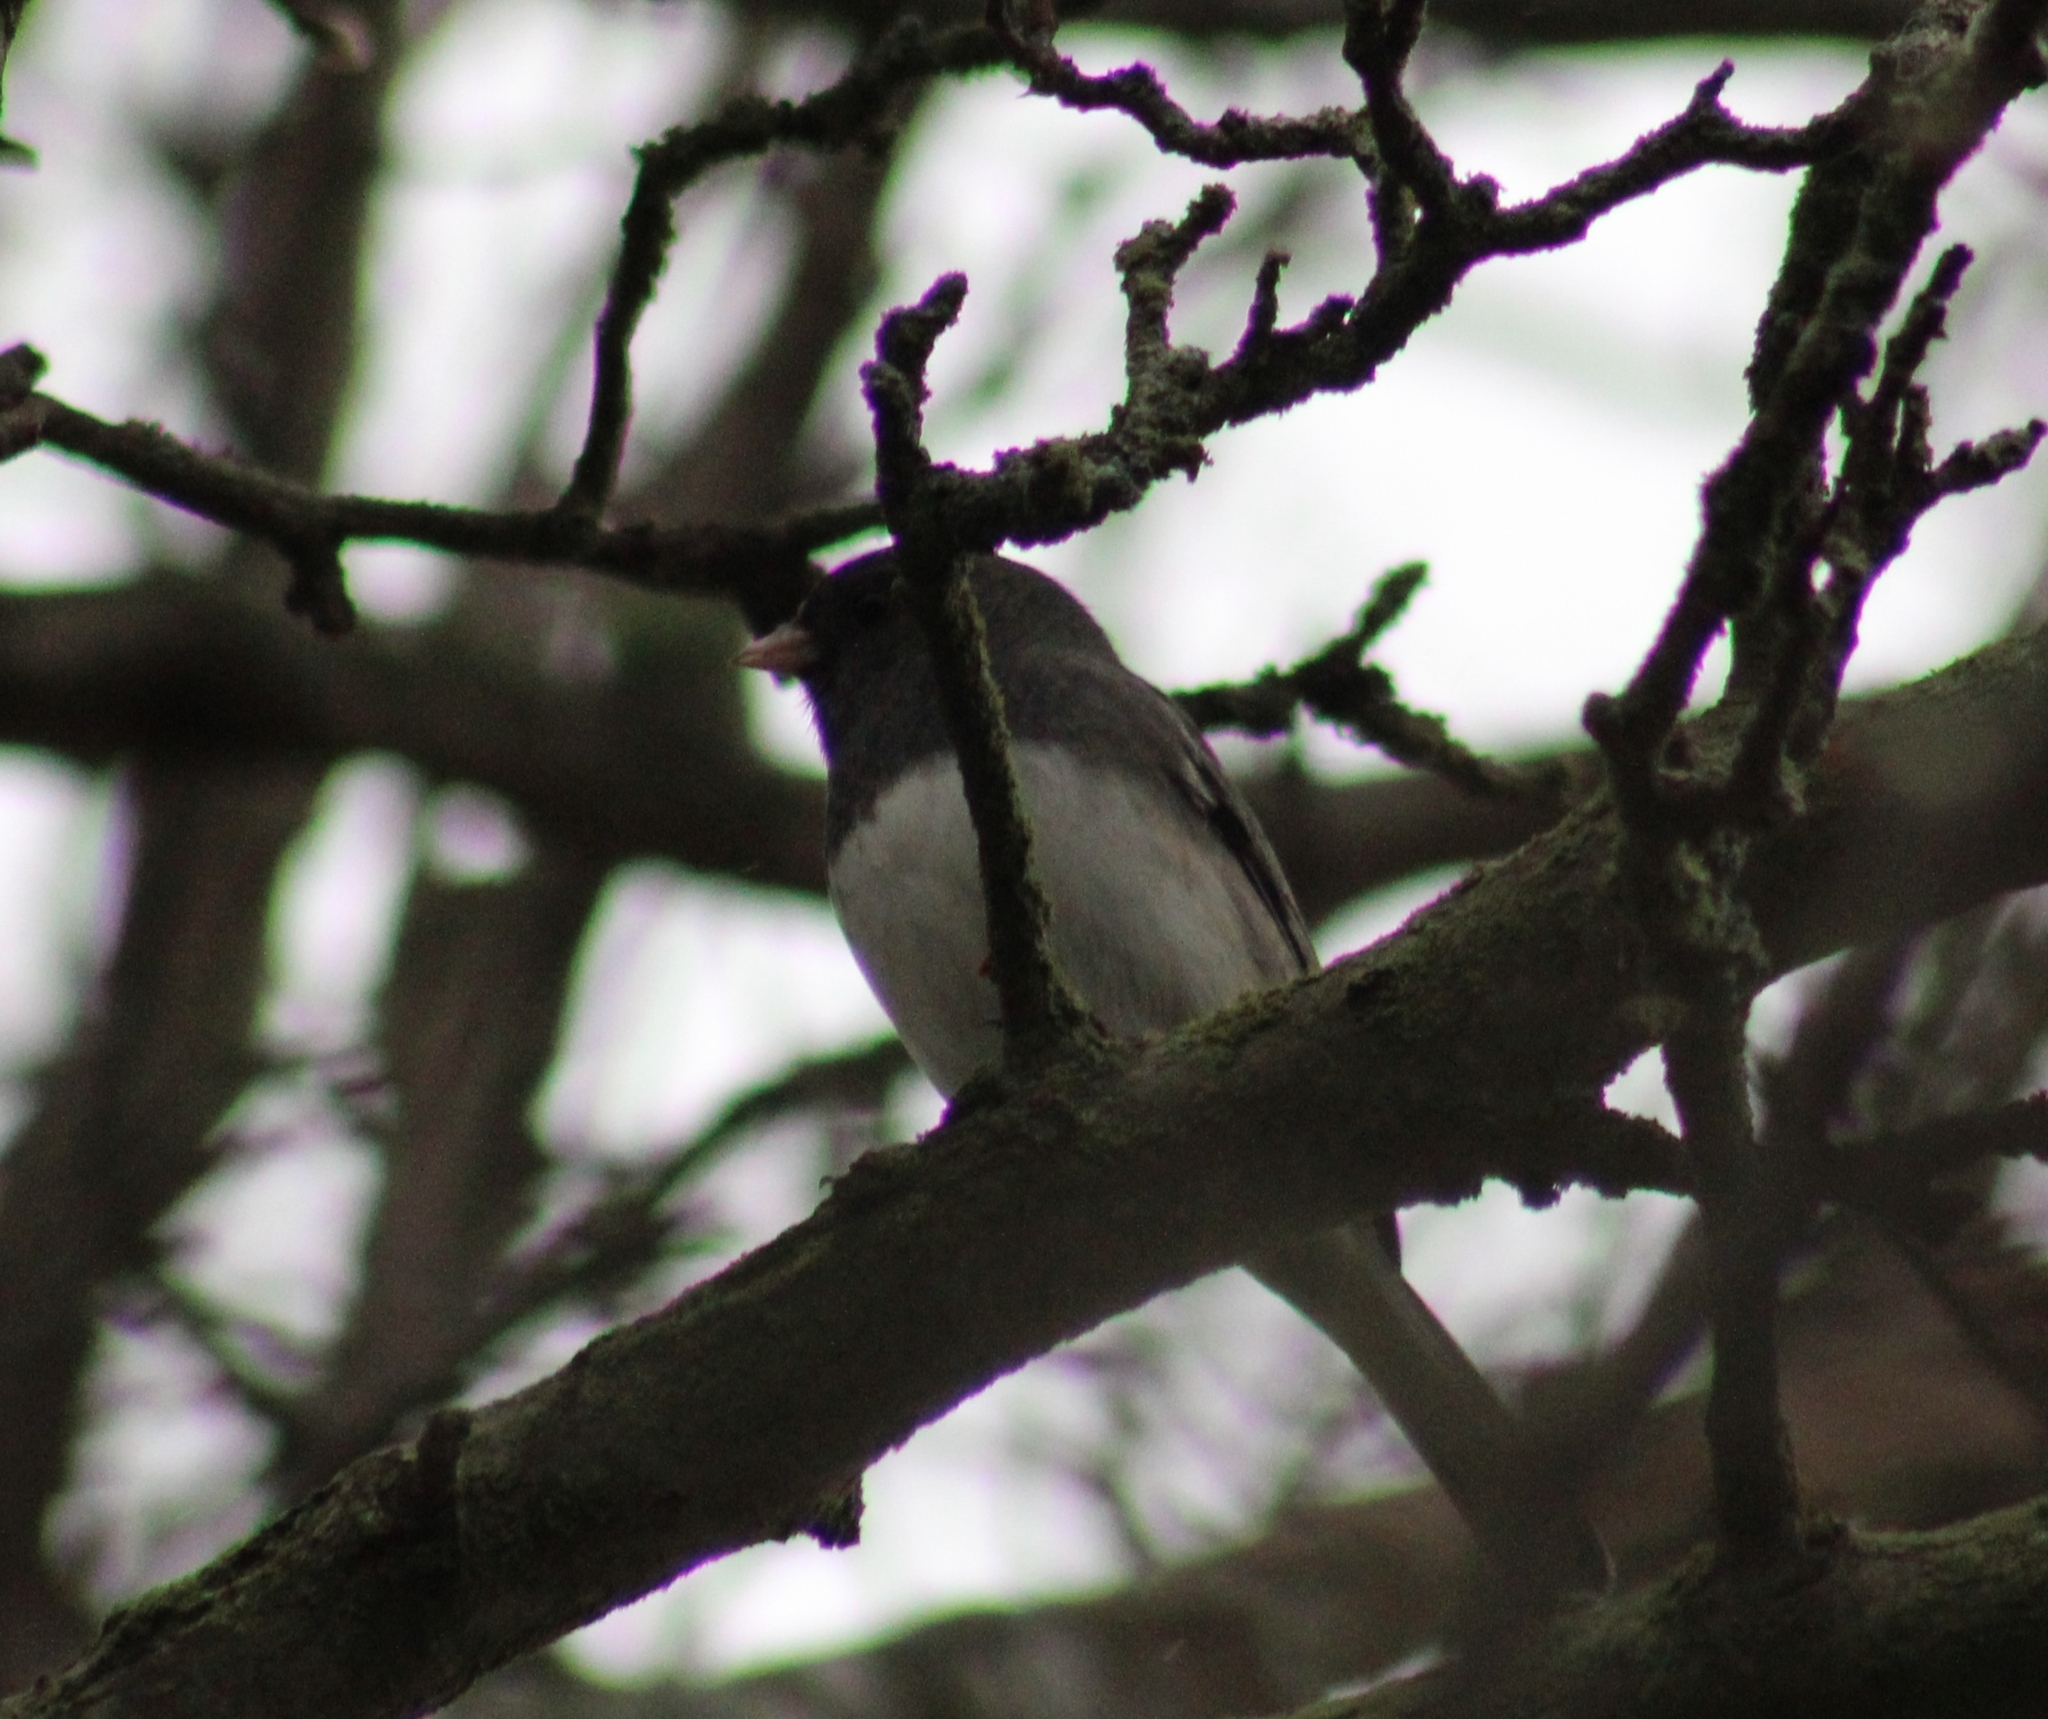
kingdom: Animalia
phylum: Chordata
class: Aves
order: Passeriformes
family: Passerellidae
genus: Junco
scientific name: Junco hyemalis
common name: Dark-eyed junco
